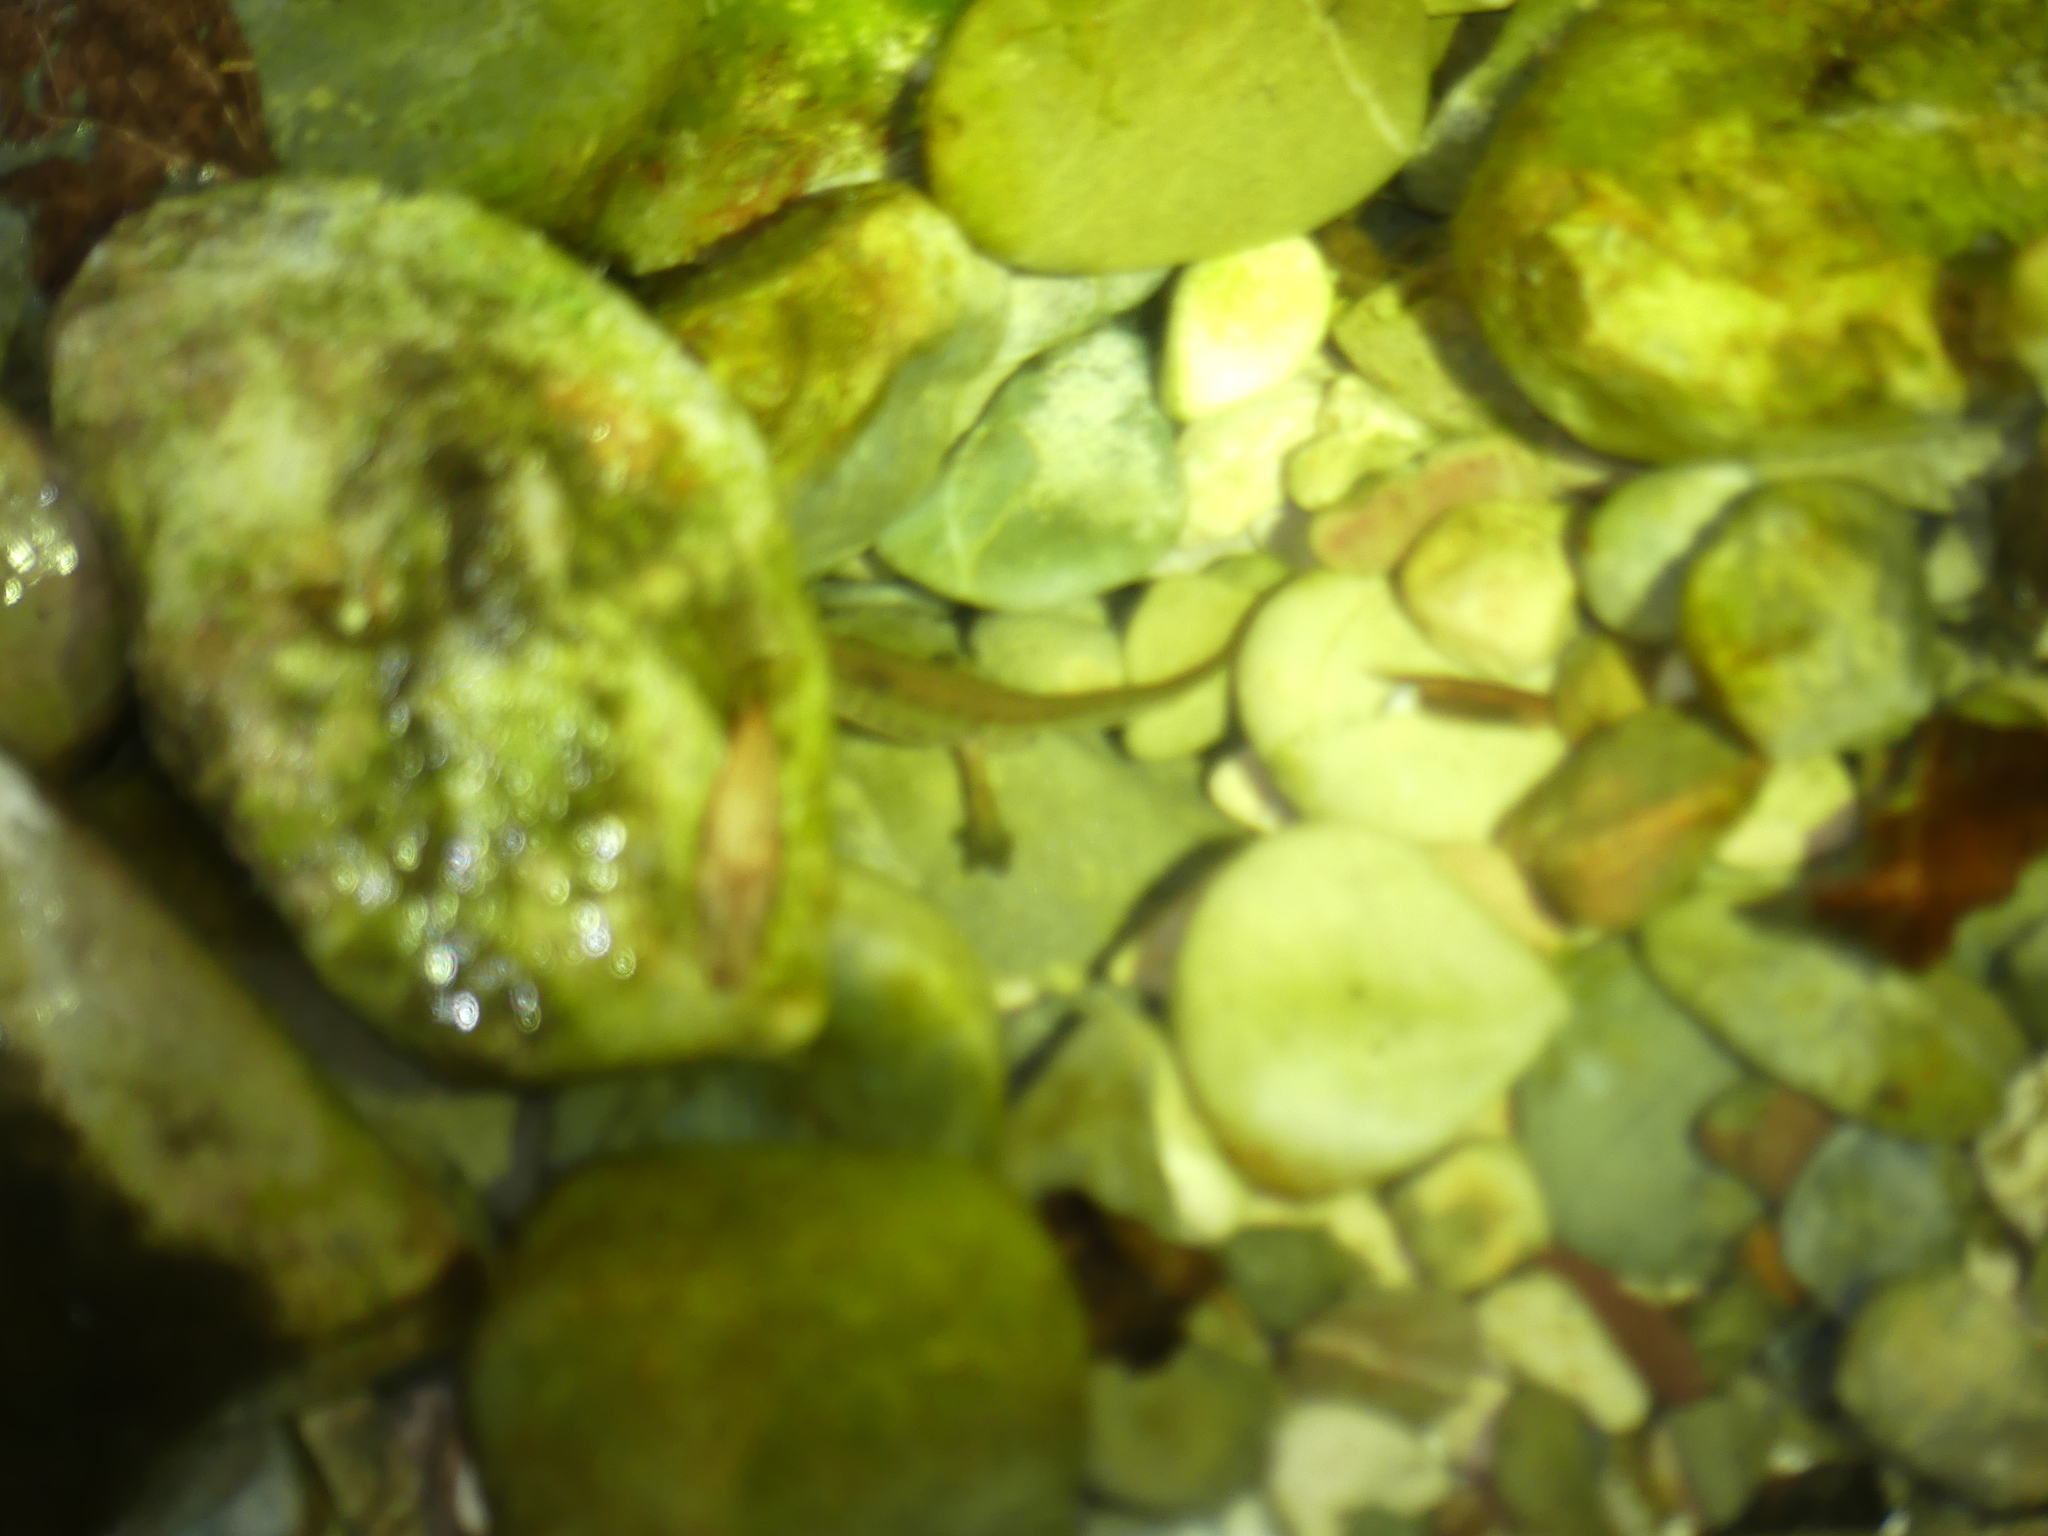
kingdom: Animalia
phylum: Chordata
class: Amphibia
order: Caudata
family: Salamandridae
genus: Lissotriton
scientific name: Lissotriton helveticus
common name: Palmate newt
